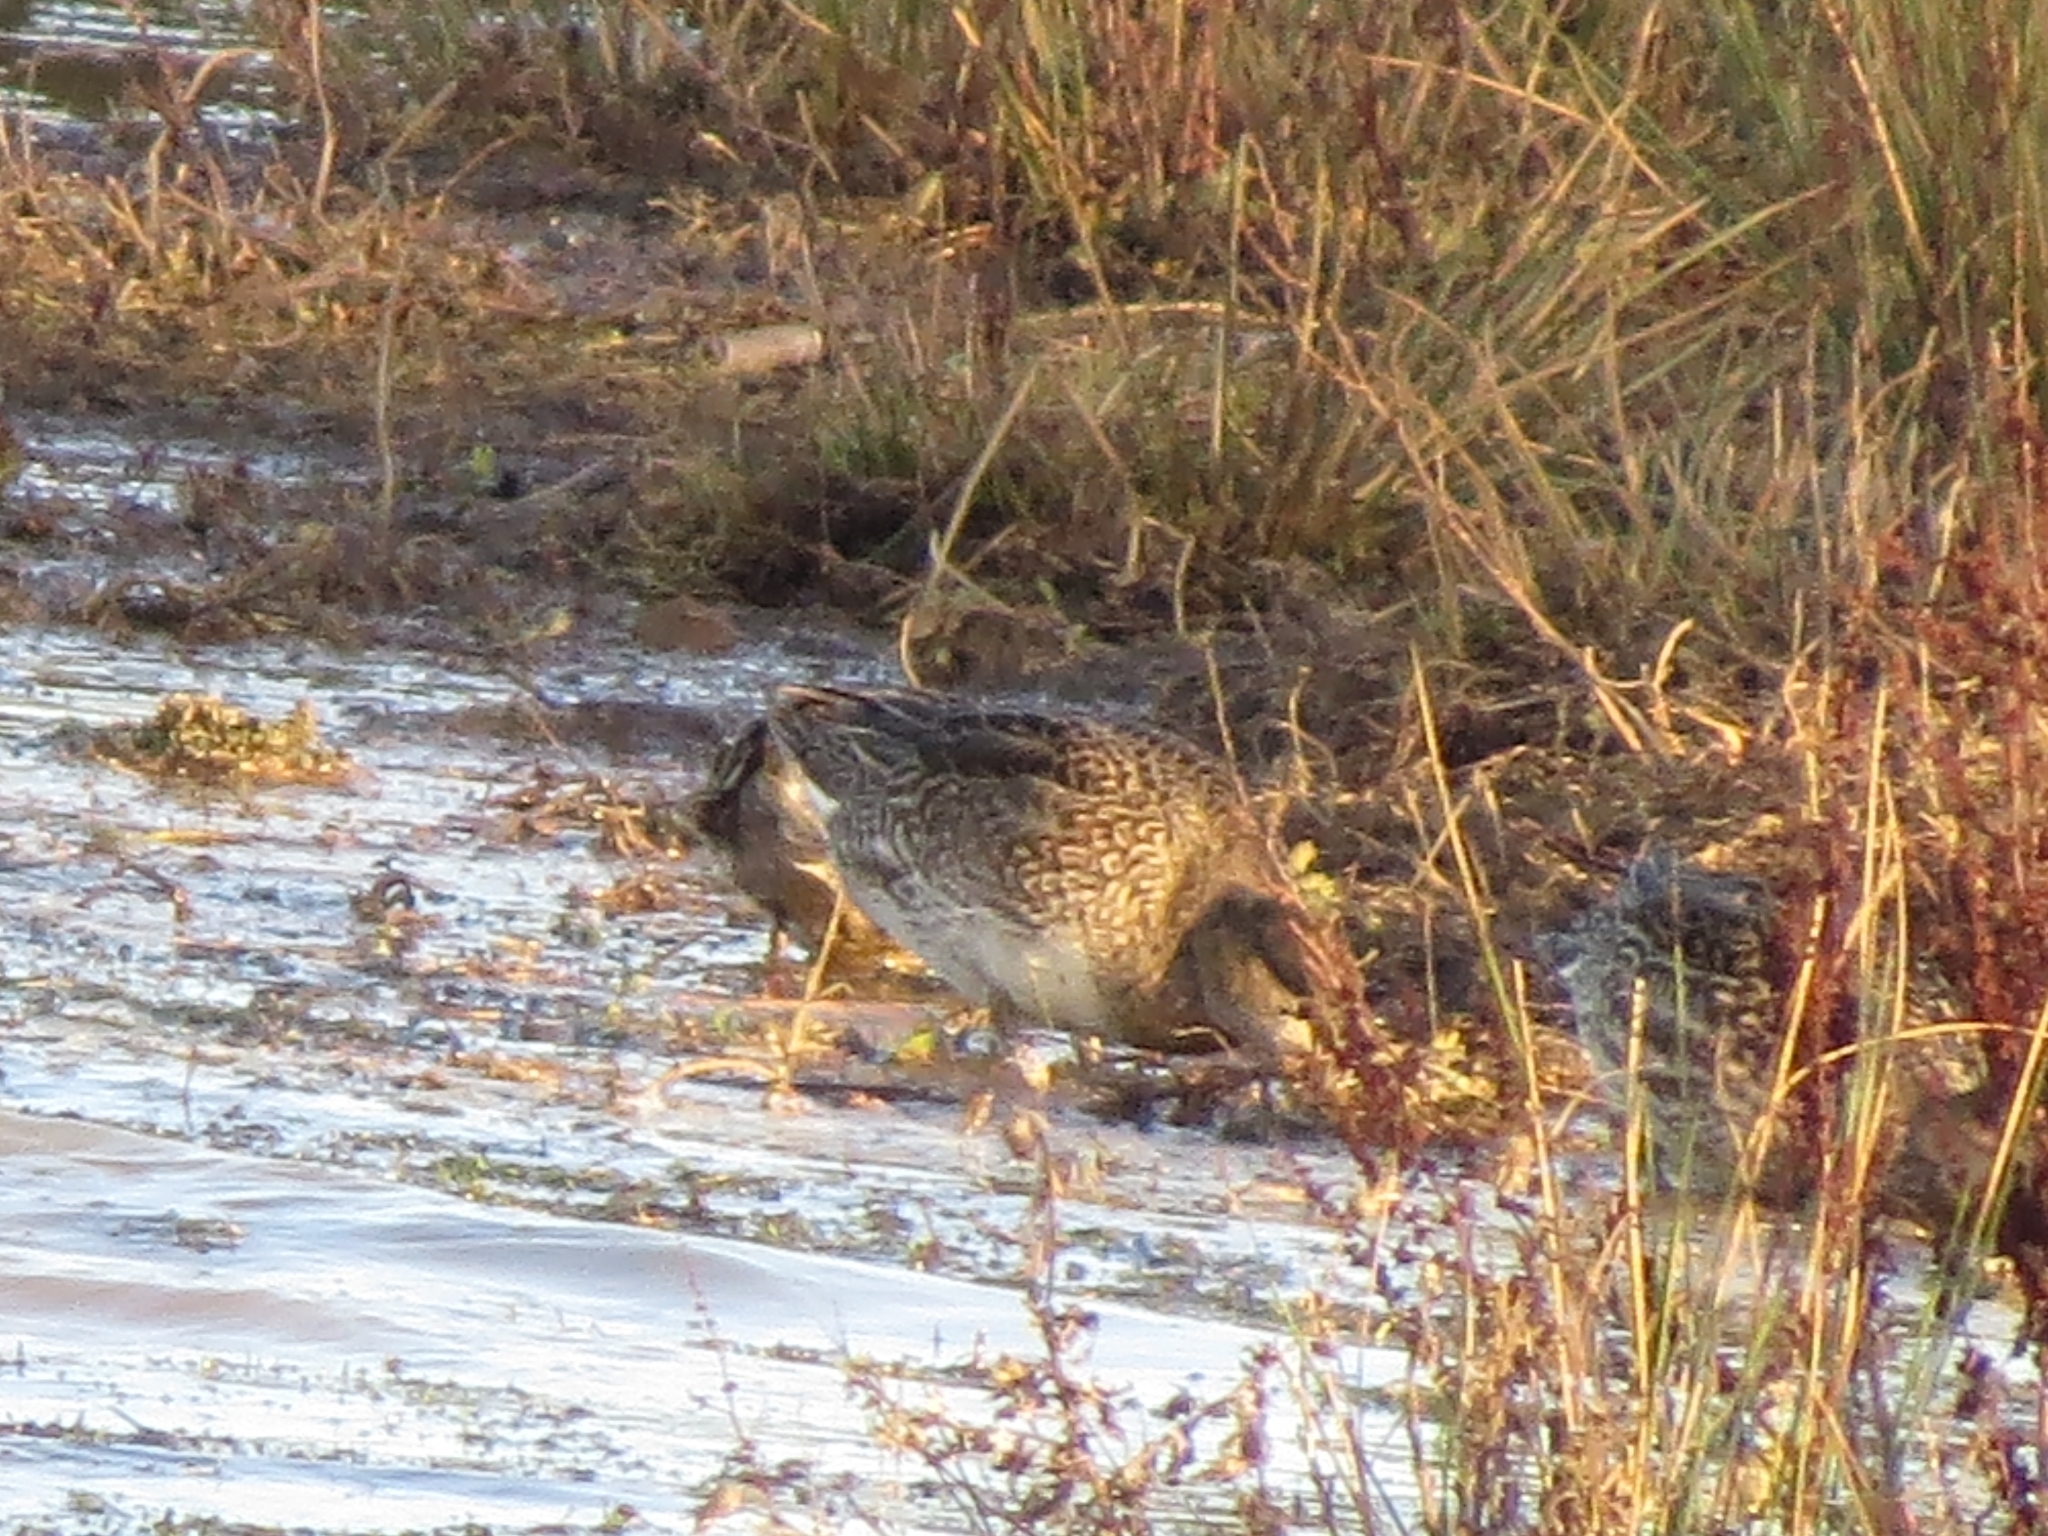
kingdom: Animalia
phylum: Chordata
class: Aves
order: Anseriformes
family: Anatidae
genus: Anas
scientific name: Anas crecca
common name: Eurasian teal
